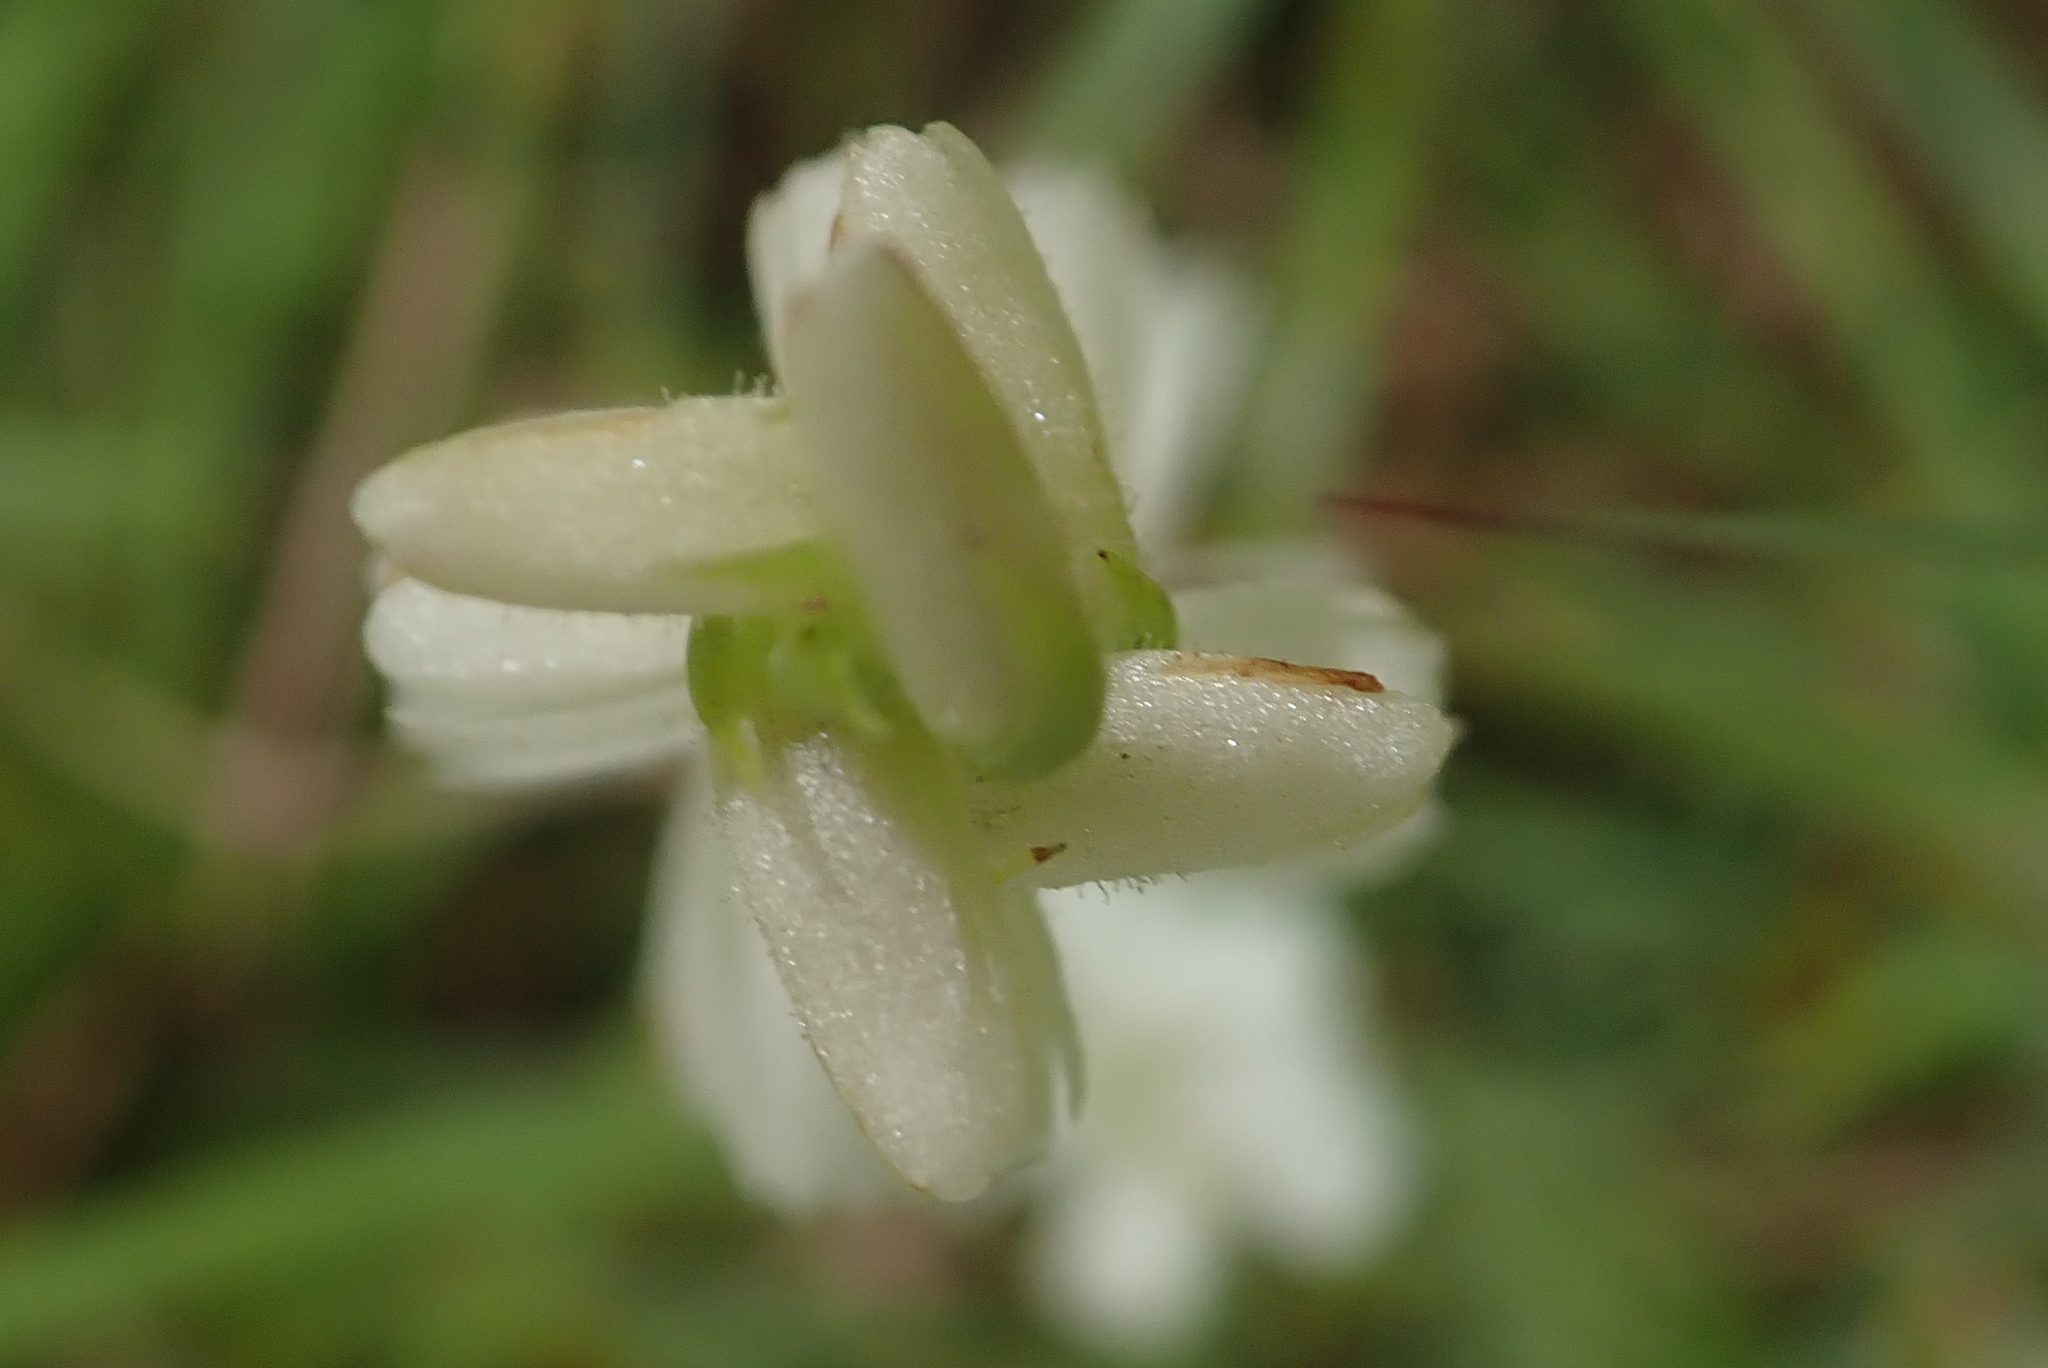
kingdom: Plantae
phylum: Tracheophyta
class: Liliopsida
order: Asparagales
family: Orchidaceae
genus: Spiranthes
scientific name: Spiranthes cernua
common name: Dropping ladies'-tresses
